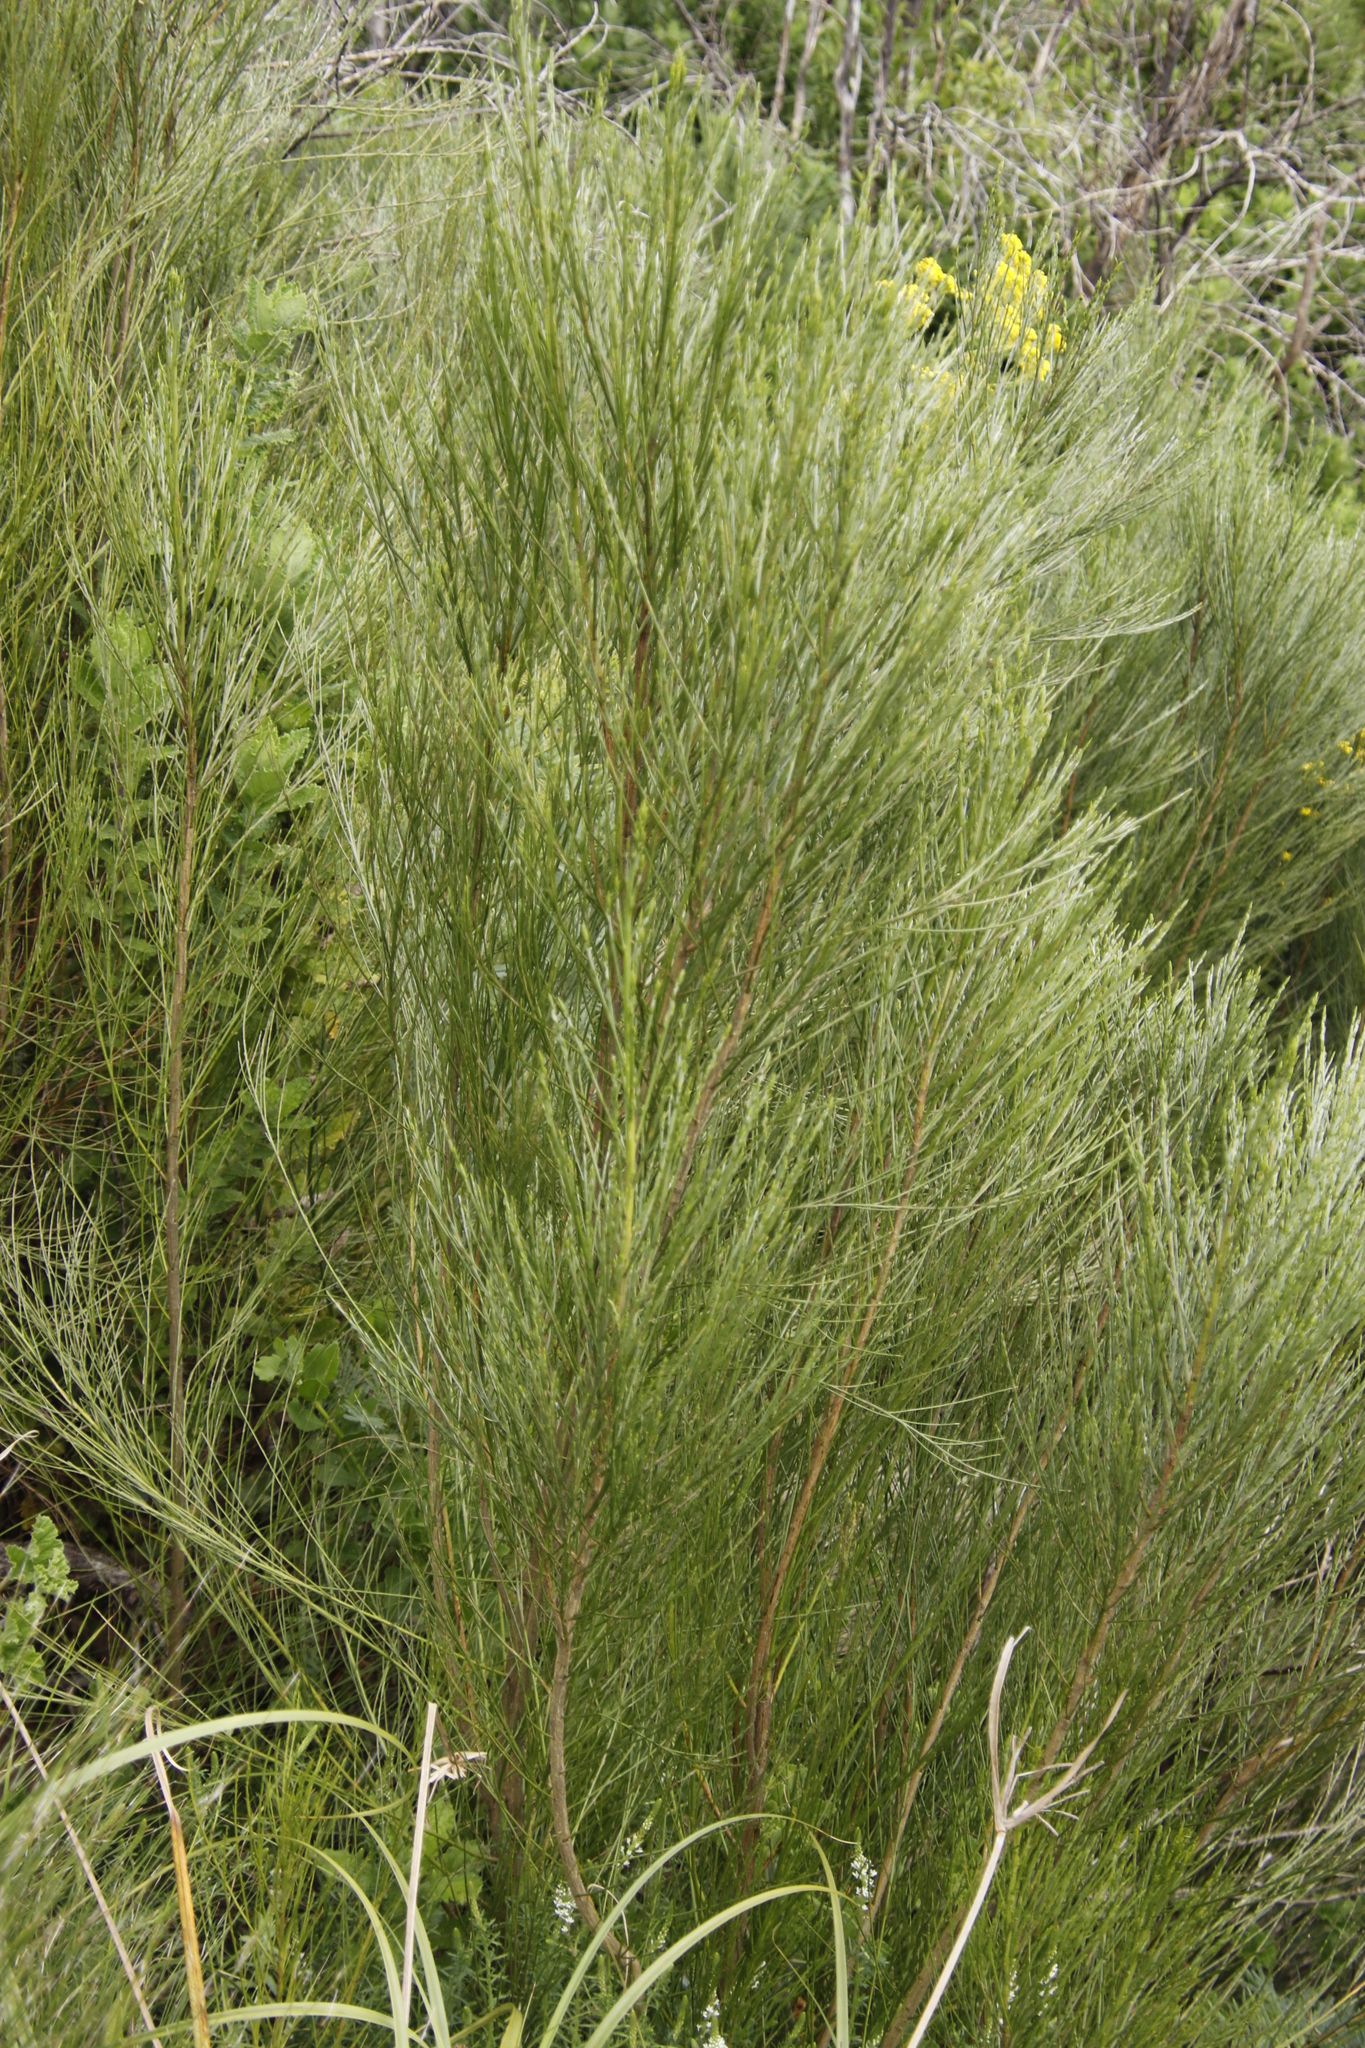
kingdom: Plantae
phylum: Tracheophyta
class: Magnoliopsida
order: Fabales
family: Fabaceae
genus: Psoralea
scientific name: Psoralea aphylla
